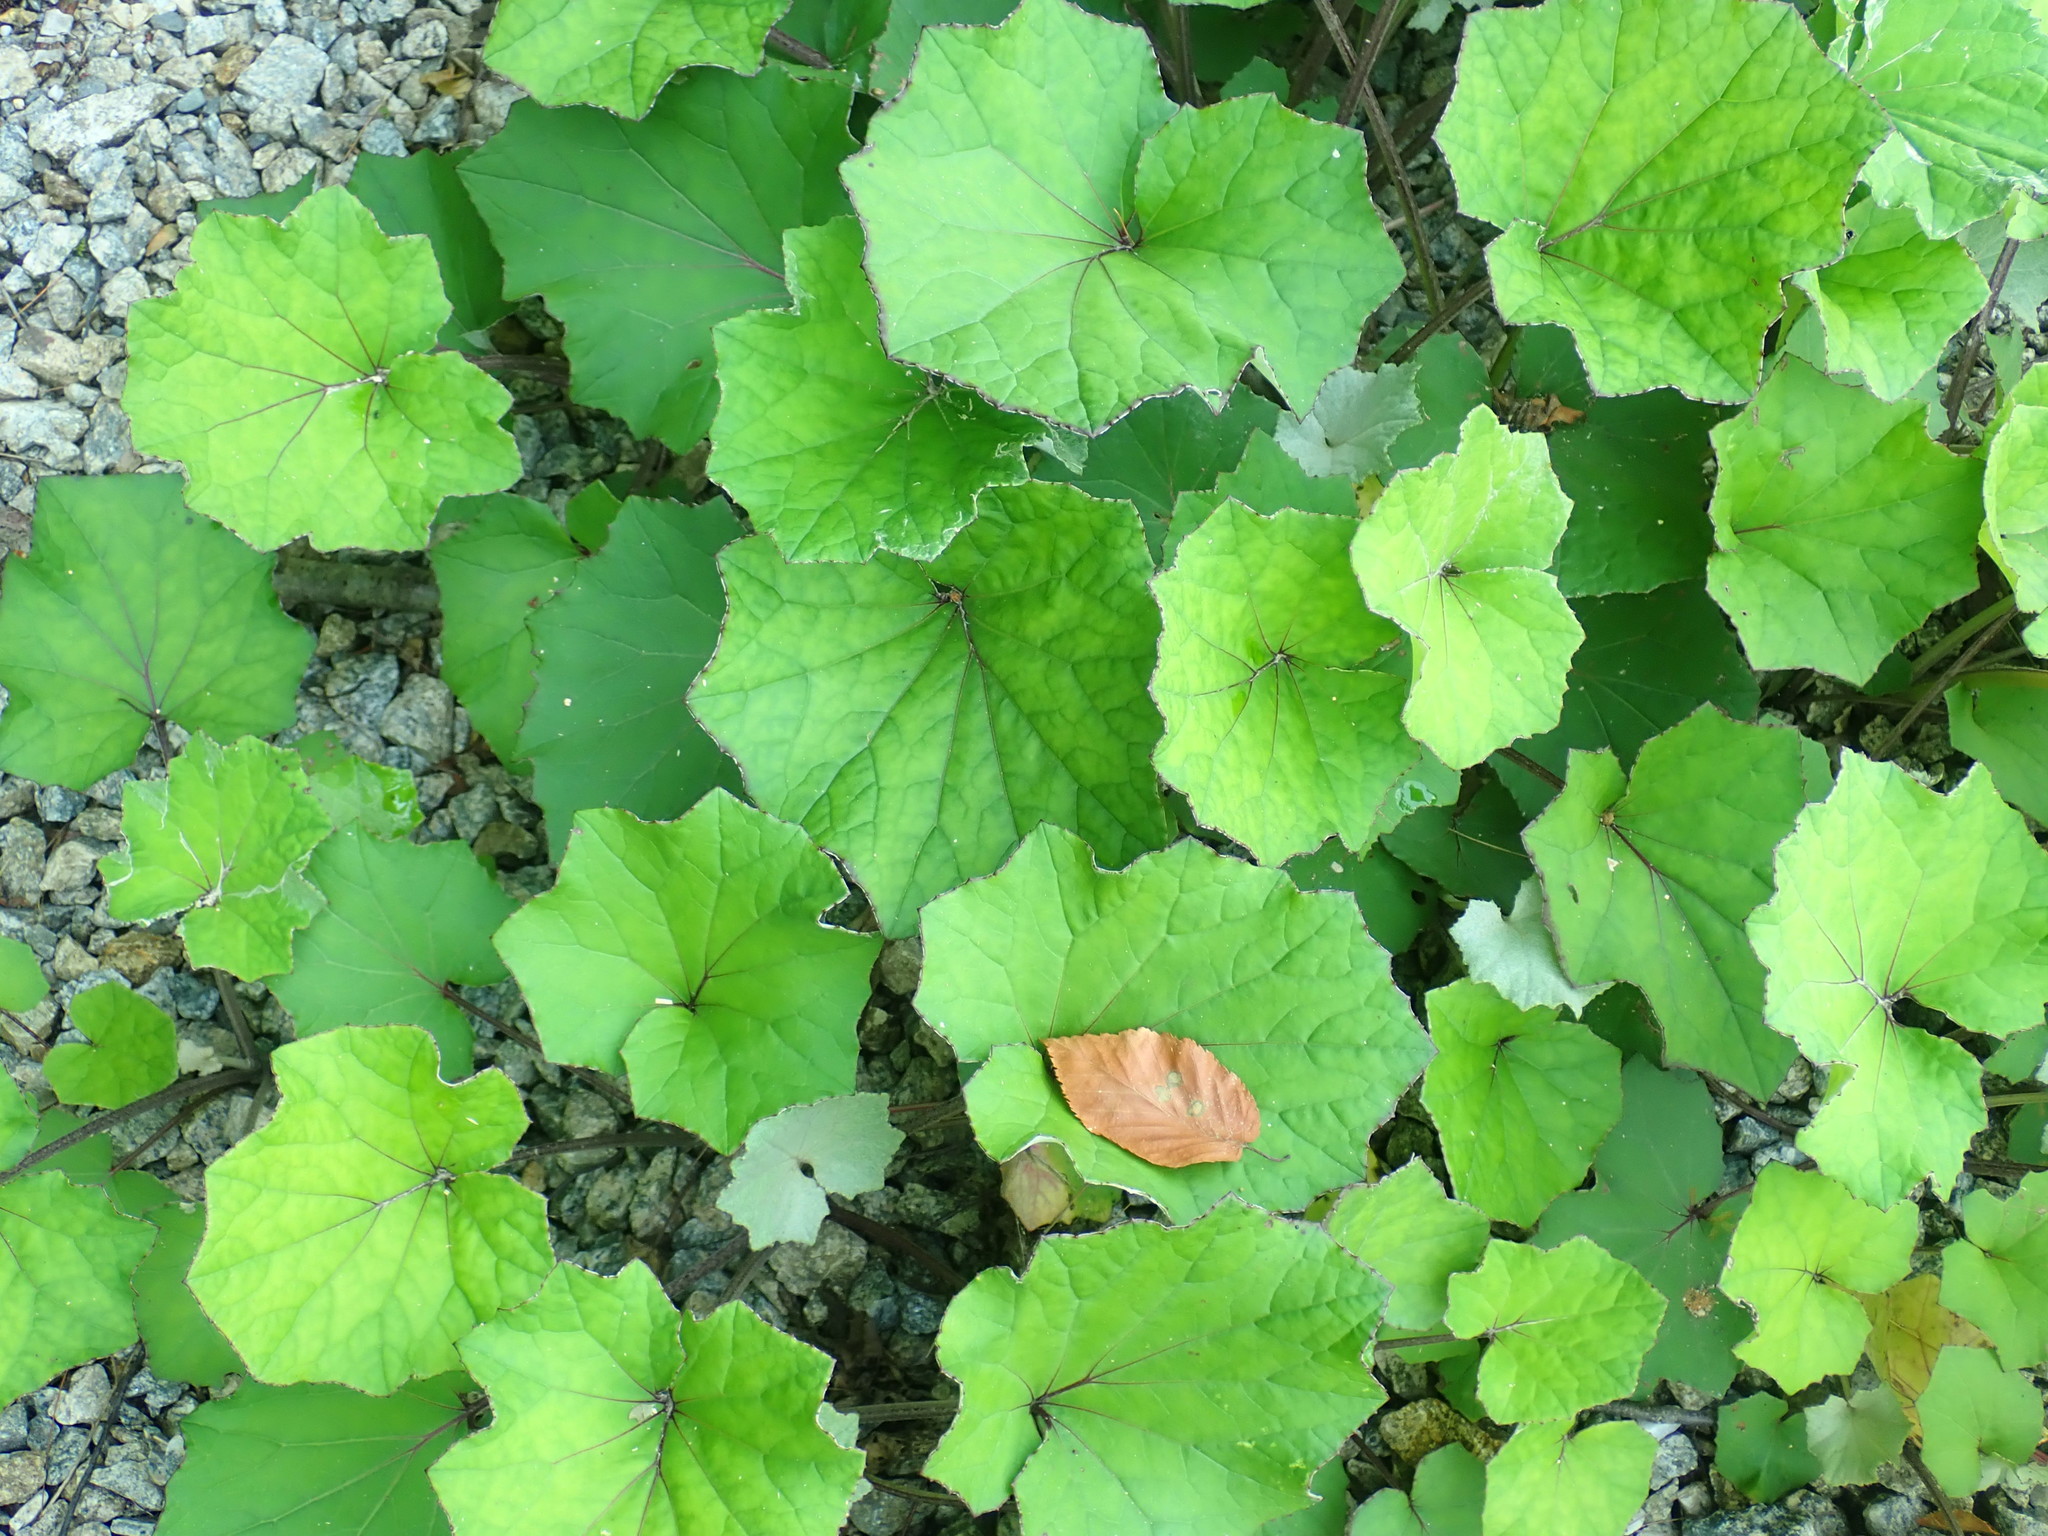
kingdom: Plantae
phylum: Tracheophyta
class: Magnoliopsida
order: Asterales
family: Asteraceae
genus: Tussilago
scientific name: Tussilago farfara
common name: Coltsfoot
